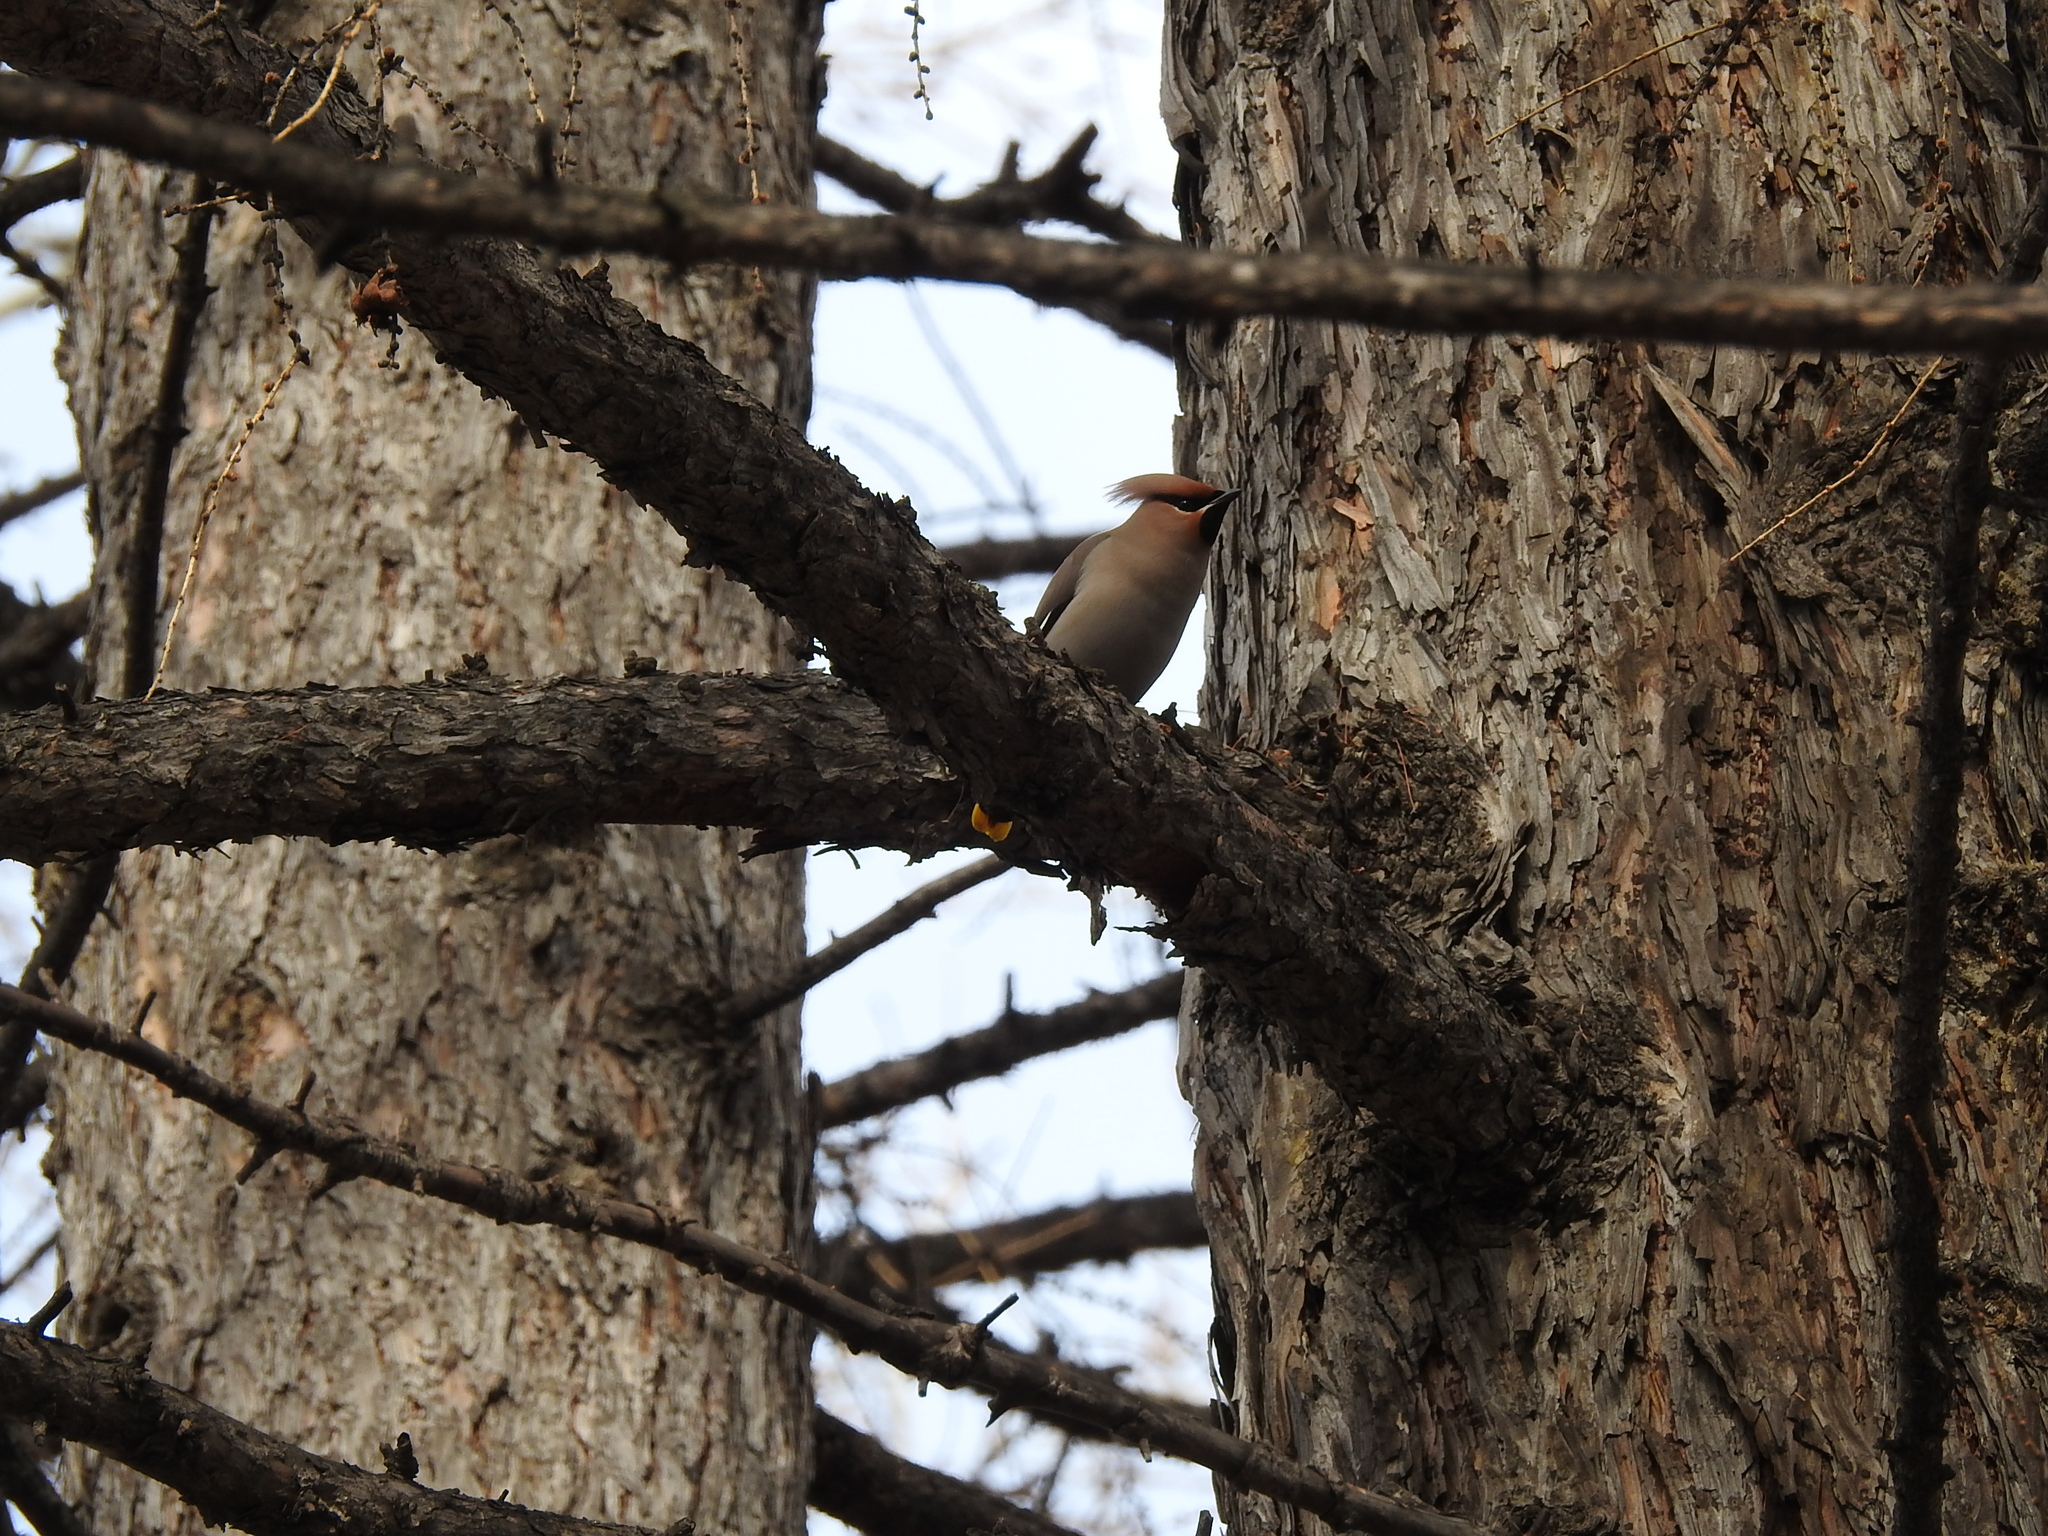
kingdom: Animalia
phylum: Chordata
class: Aves
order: Passeriformes
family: Bombycillidae
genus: Bombycilla
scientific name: Bombycilla garrulus
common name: Bohemian waxwing
